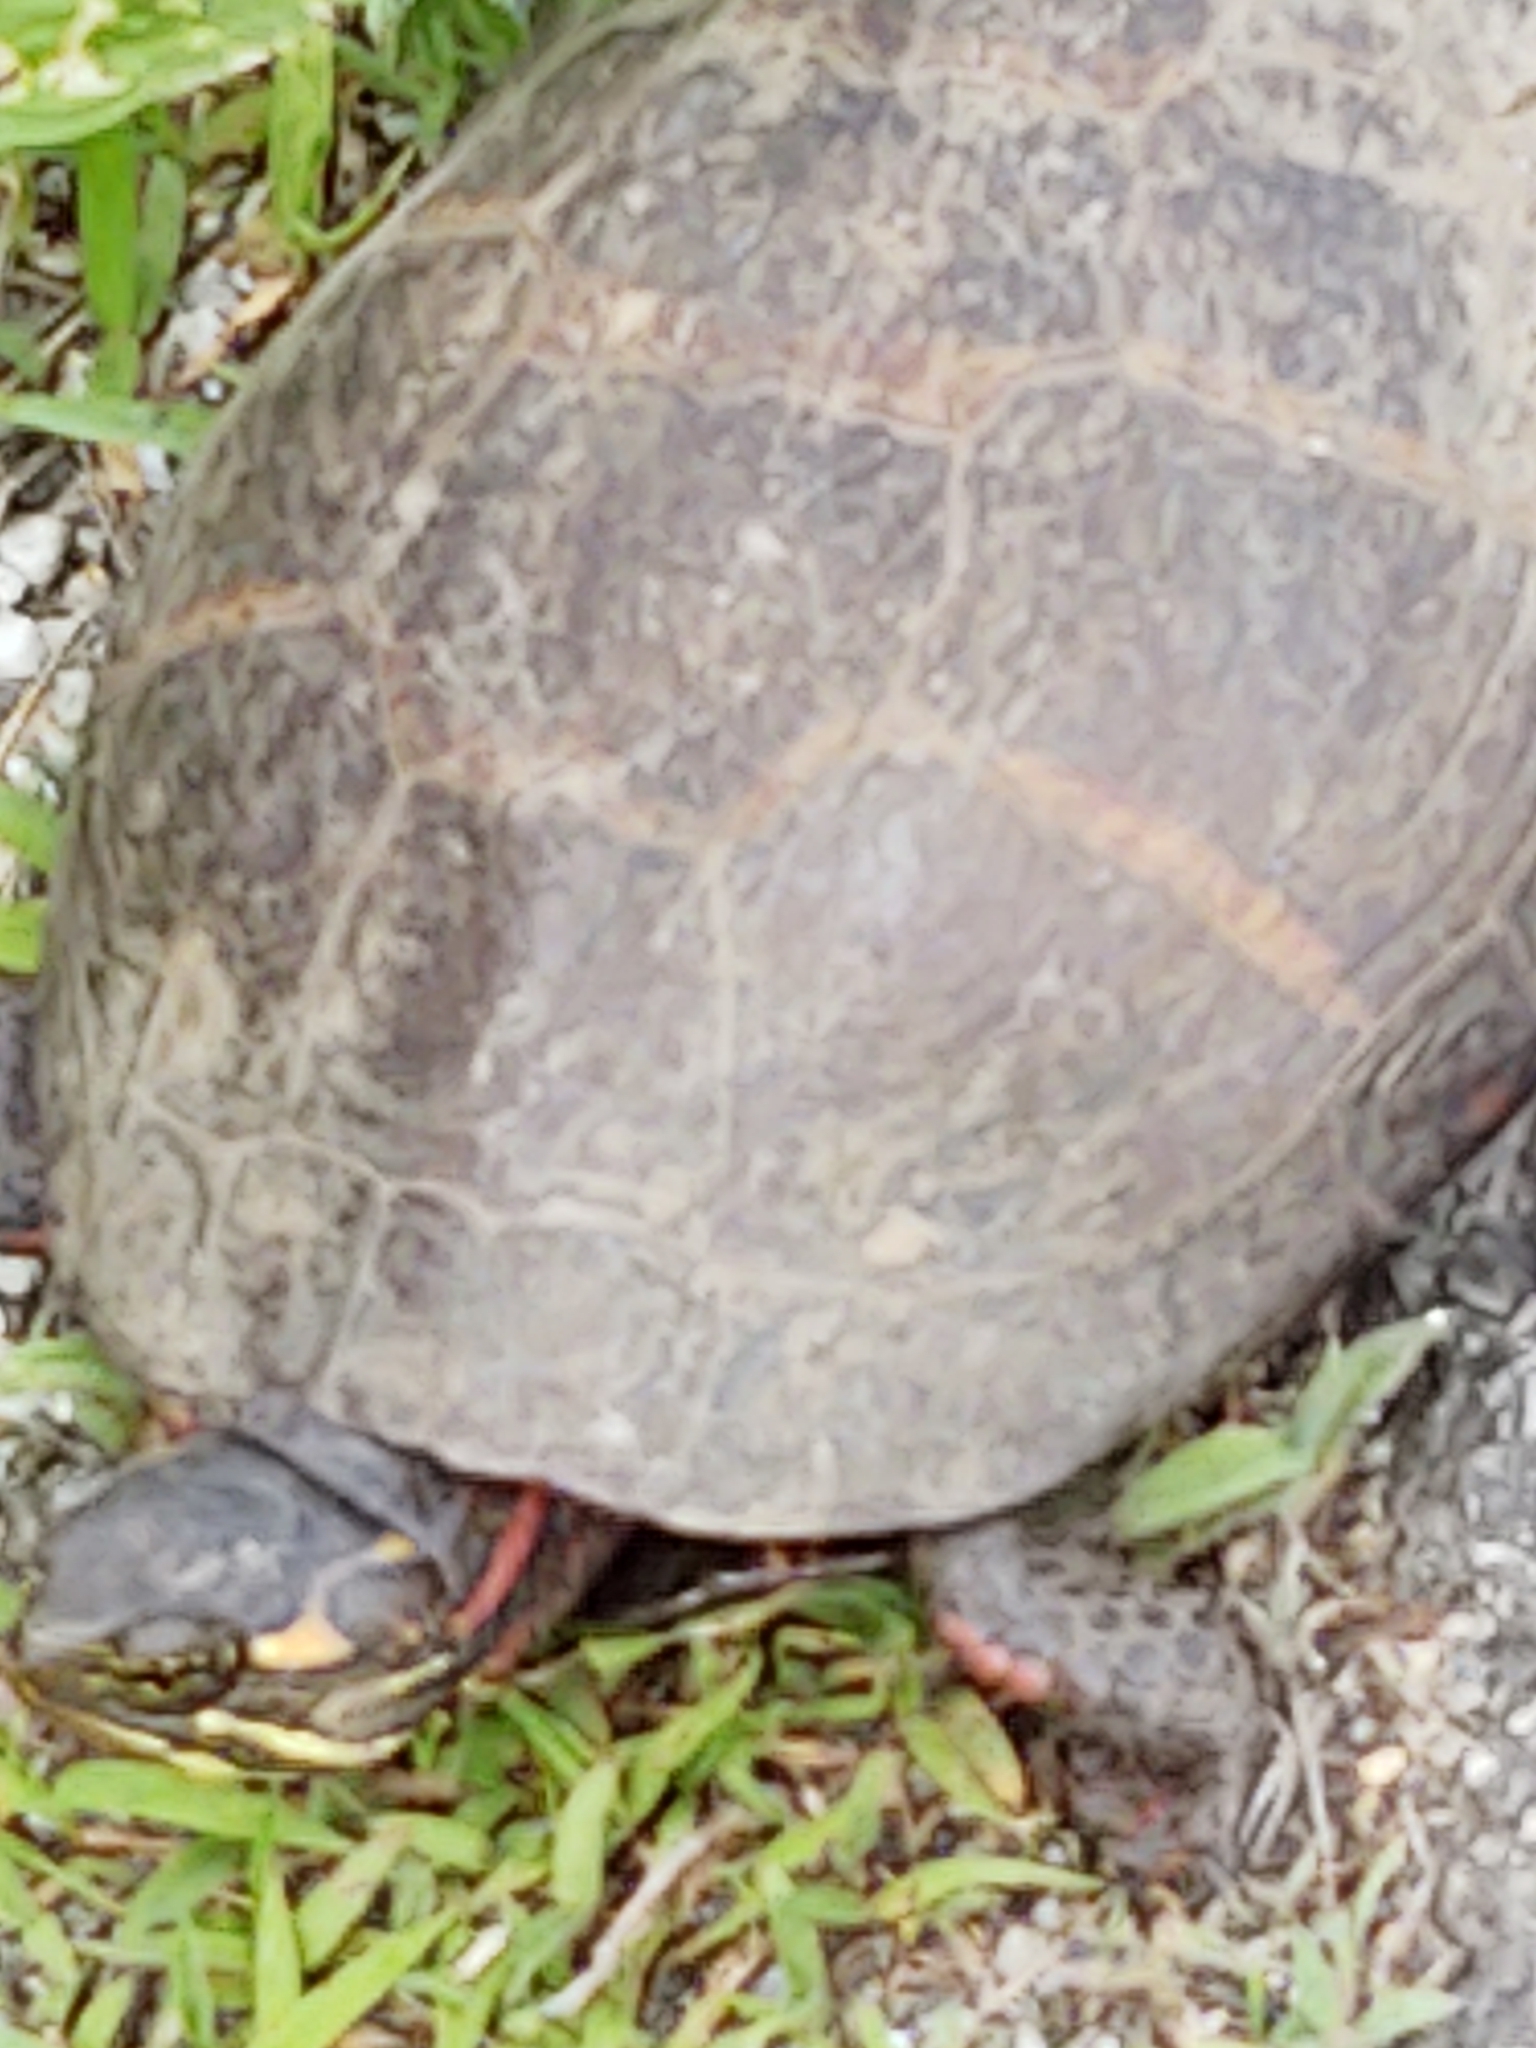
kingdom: Animalia
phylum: Chordata
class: Testudines
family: Emydidae
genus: Chrysemys
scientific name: Chrysemys picta
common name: Painted turtle
